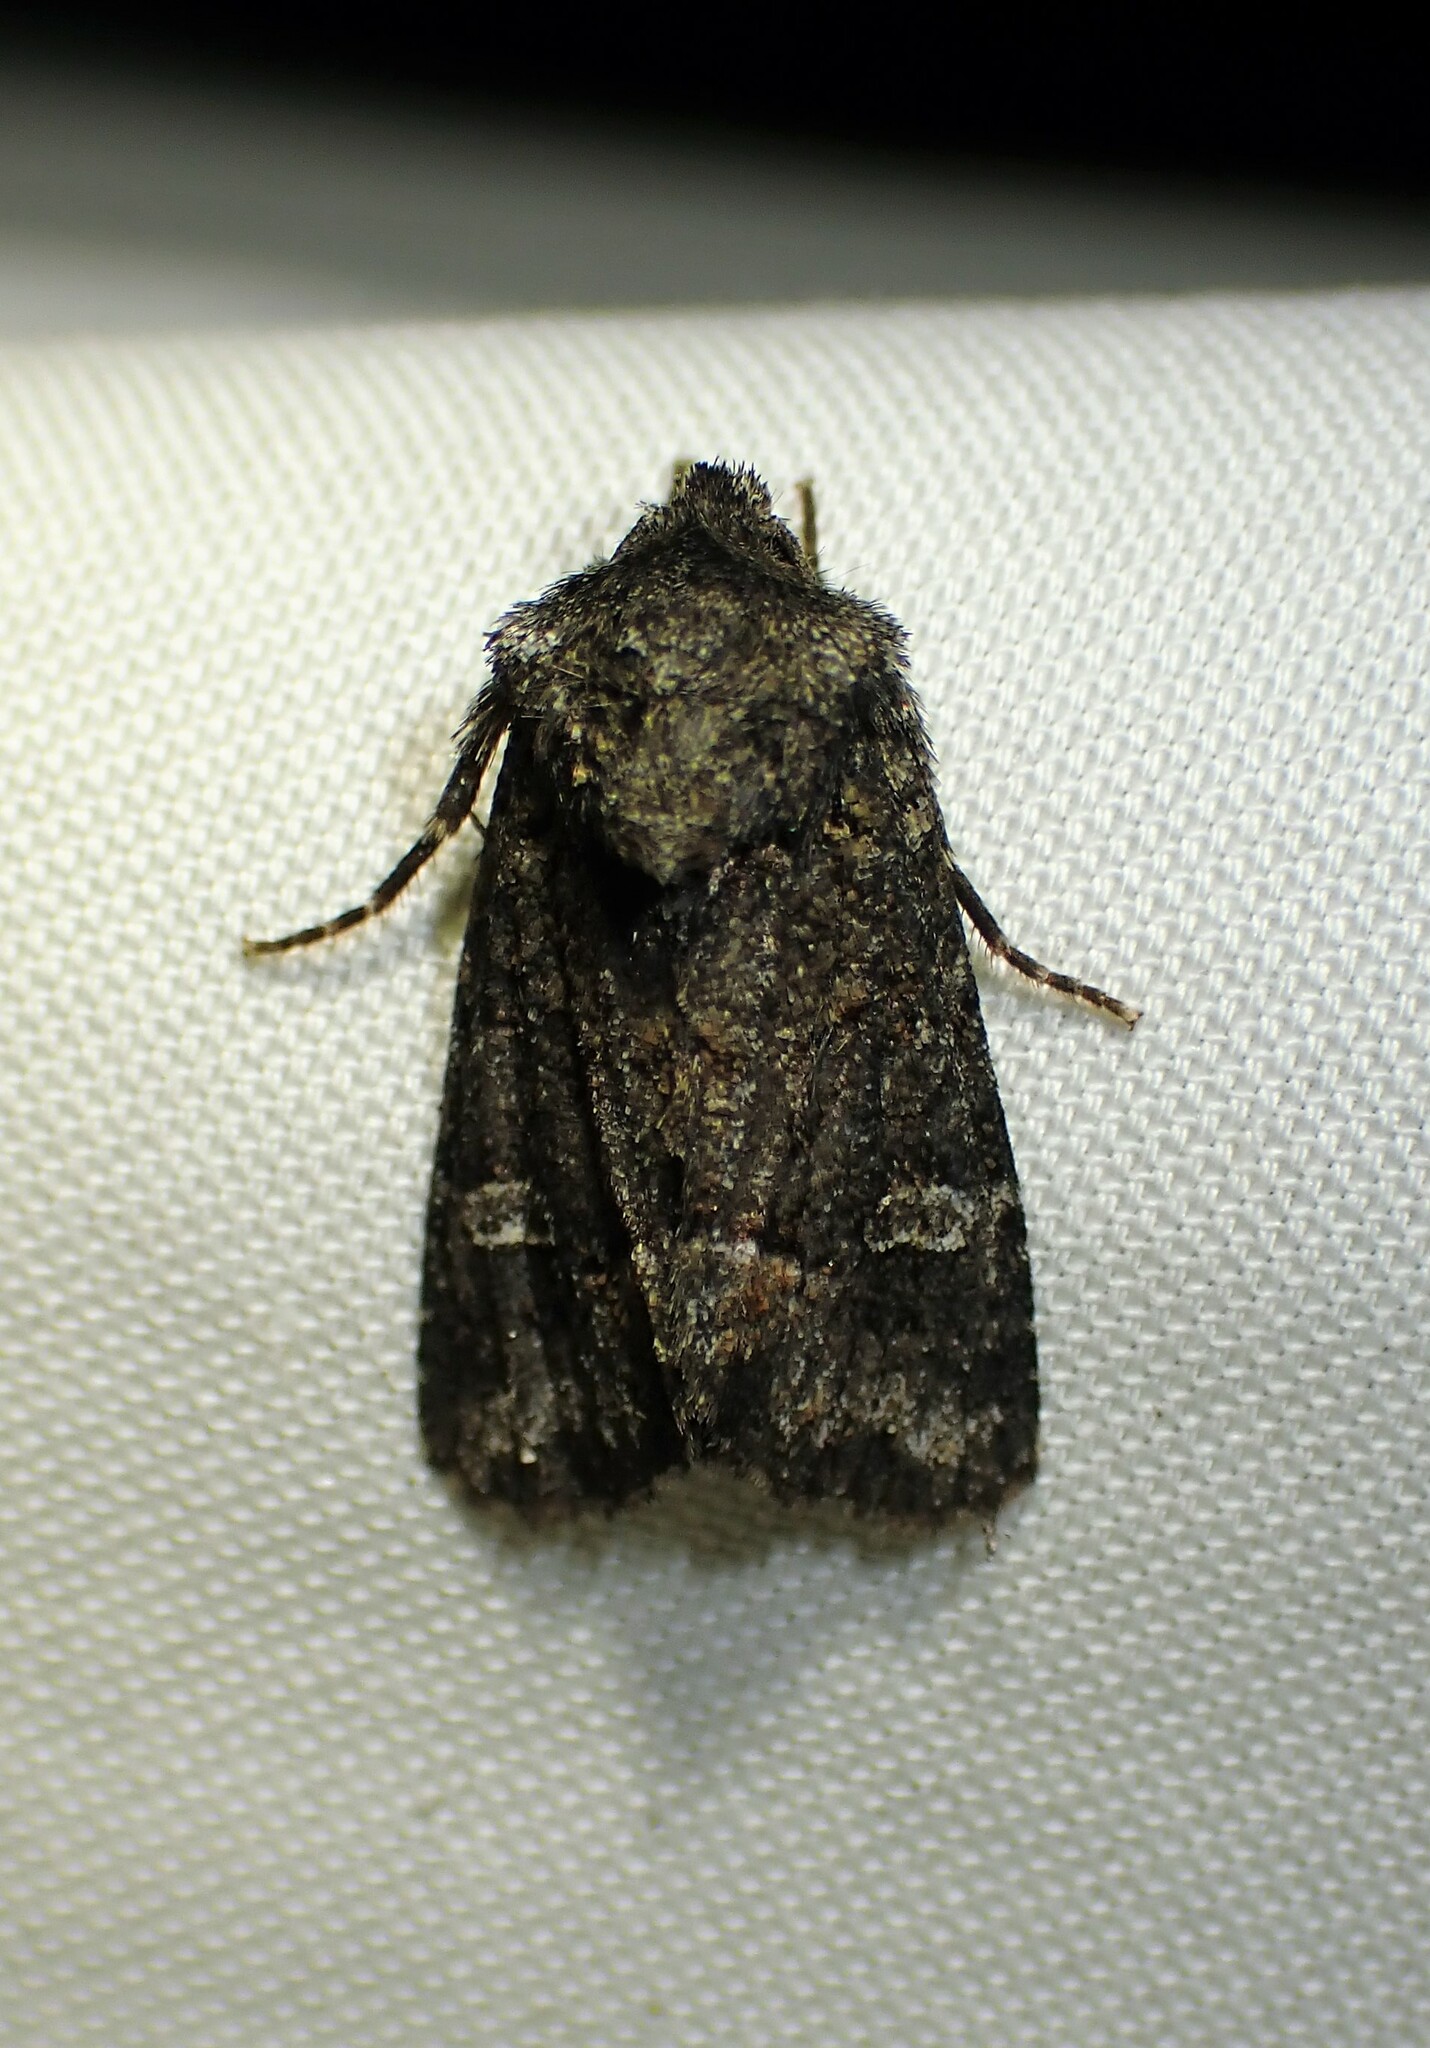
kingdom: Animalia
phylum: Arthropoda
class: Insecta
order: Lepidoptera
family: Noctuidae
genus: Lacinipolia
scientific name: Lacinipolia olivacea
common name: Olive arches moth
